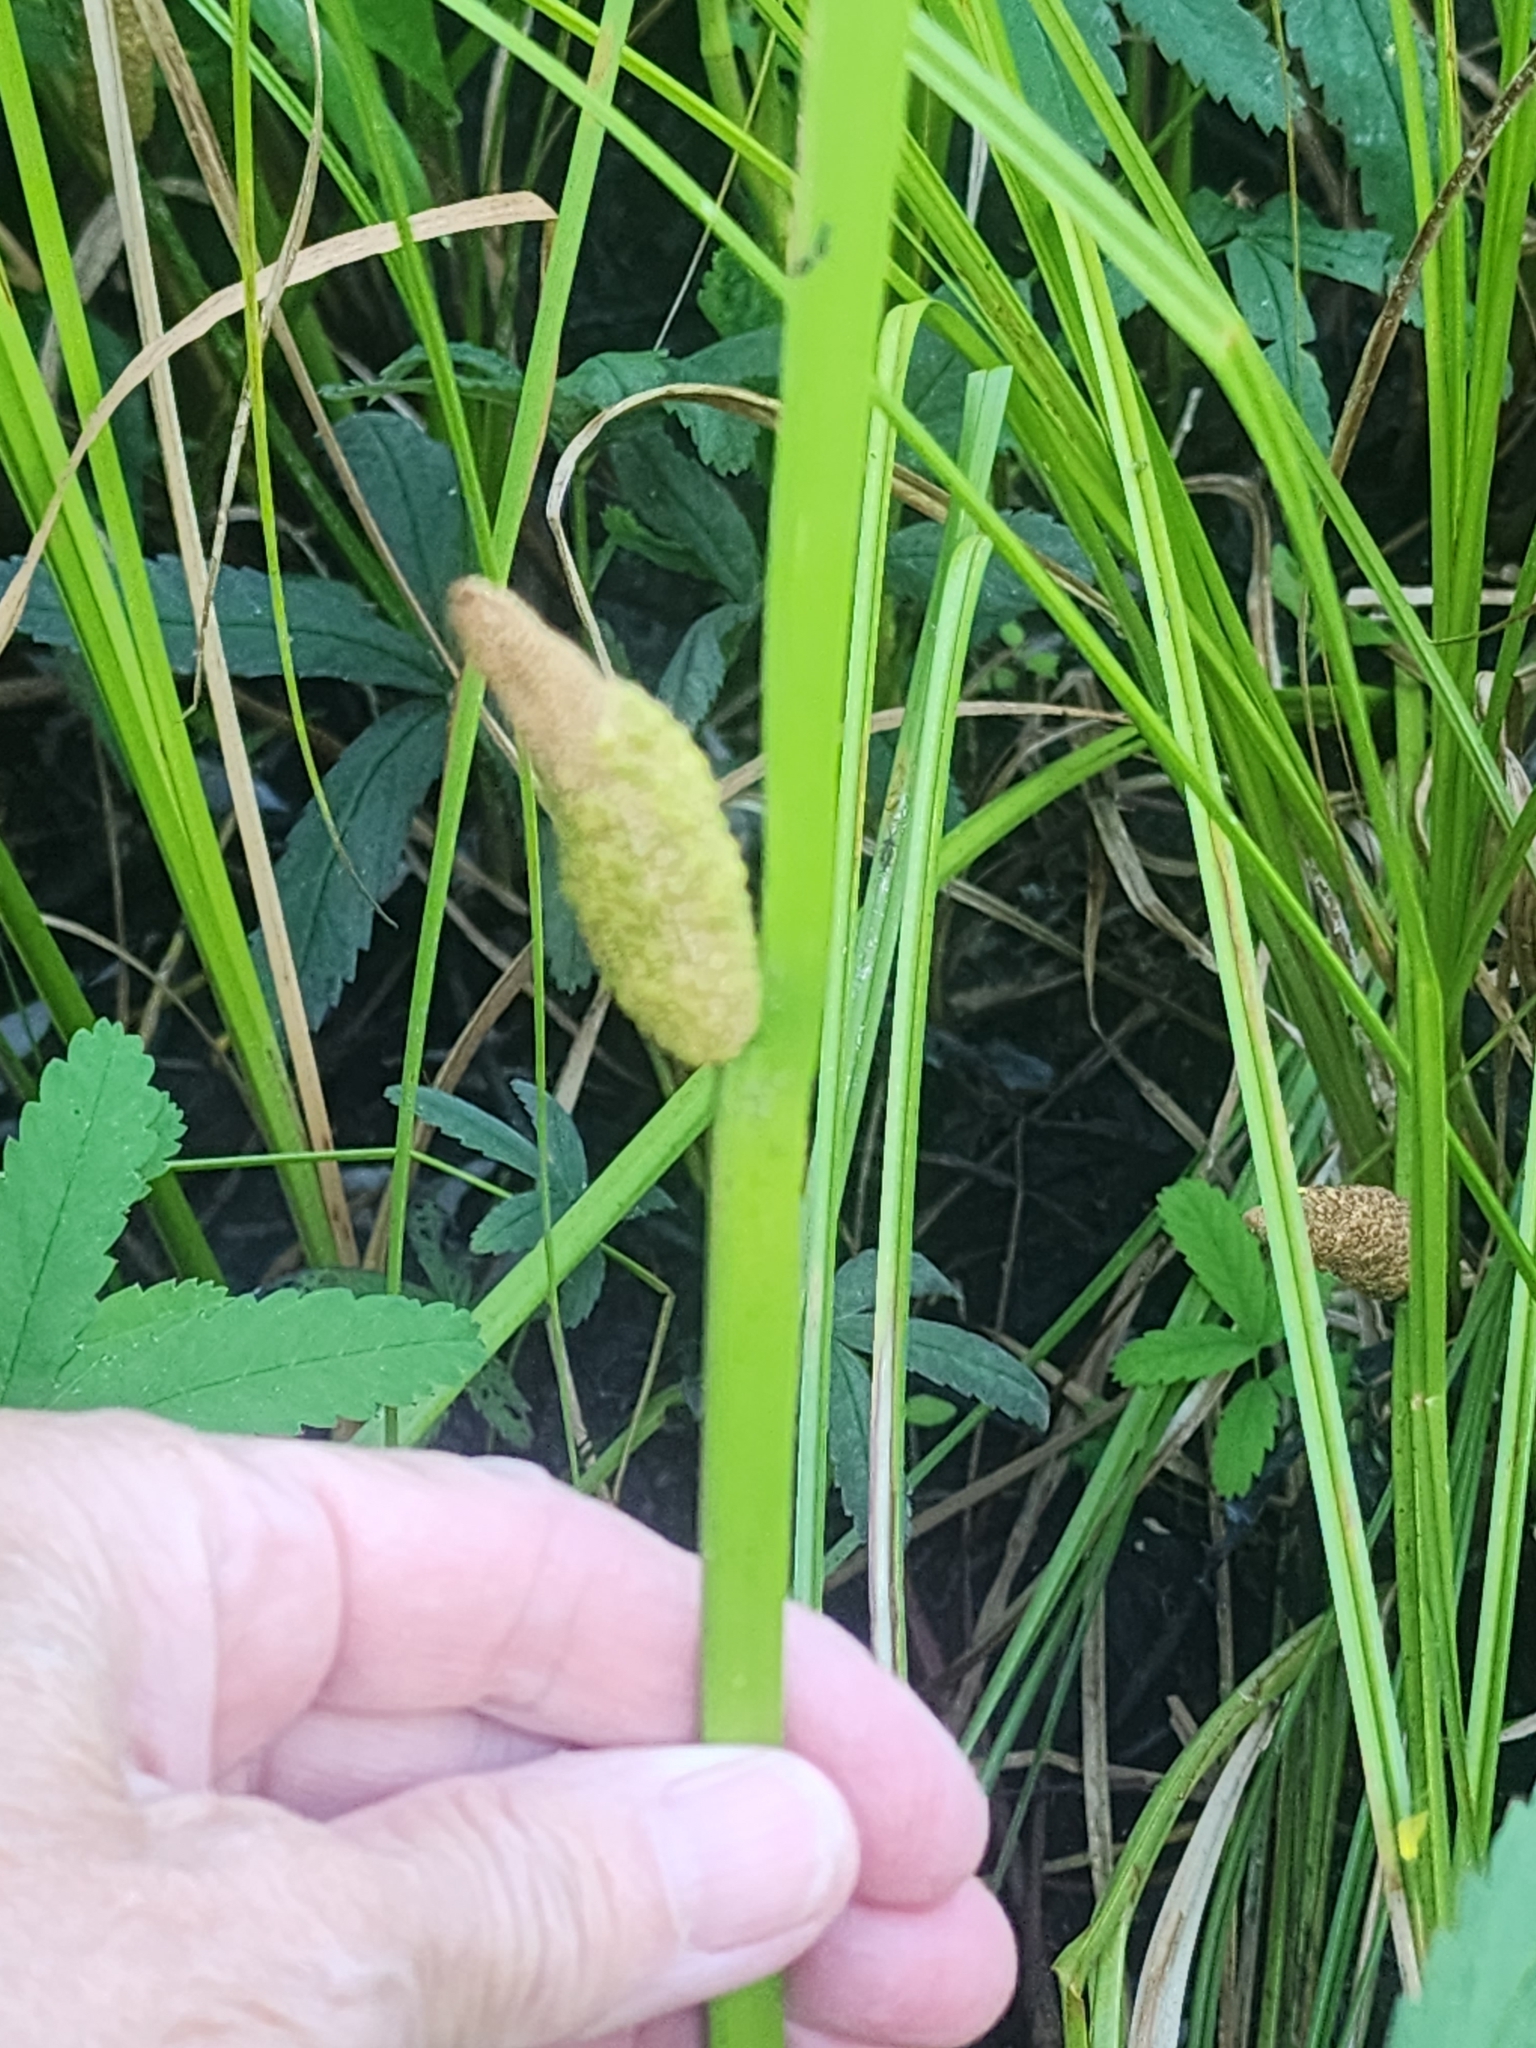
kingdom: Plantae
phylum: Tracheophyta
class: Liliopsida
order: Acorales
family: Acoraceae
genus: Acorus
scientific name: Acorus calamus
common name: Sweet-flag
